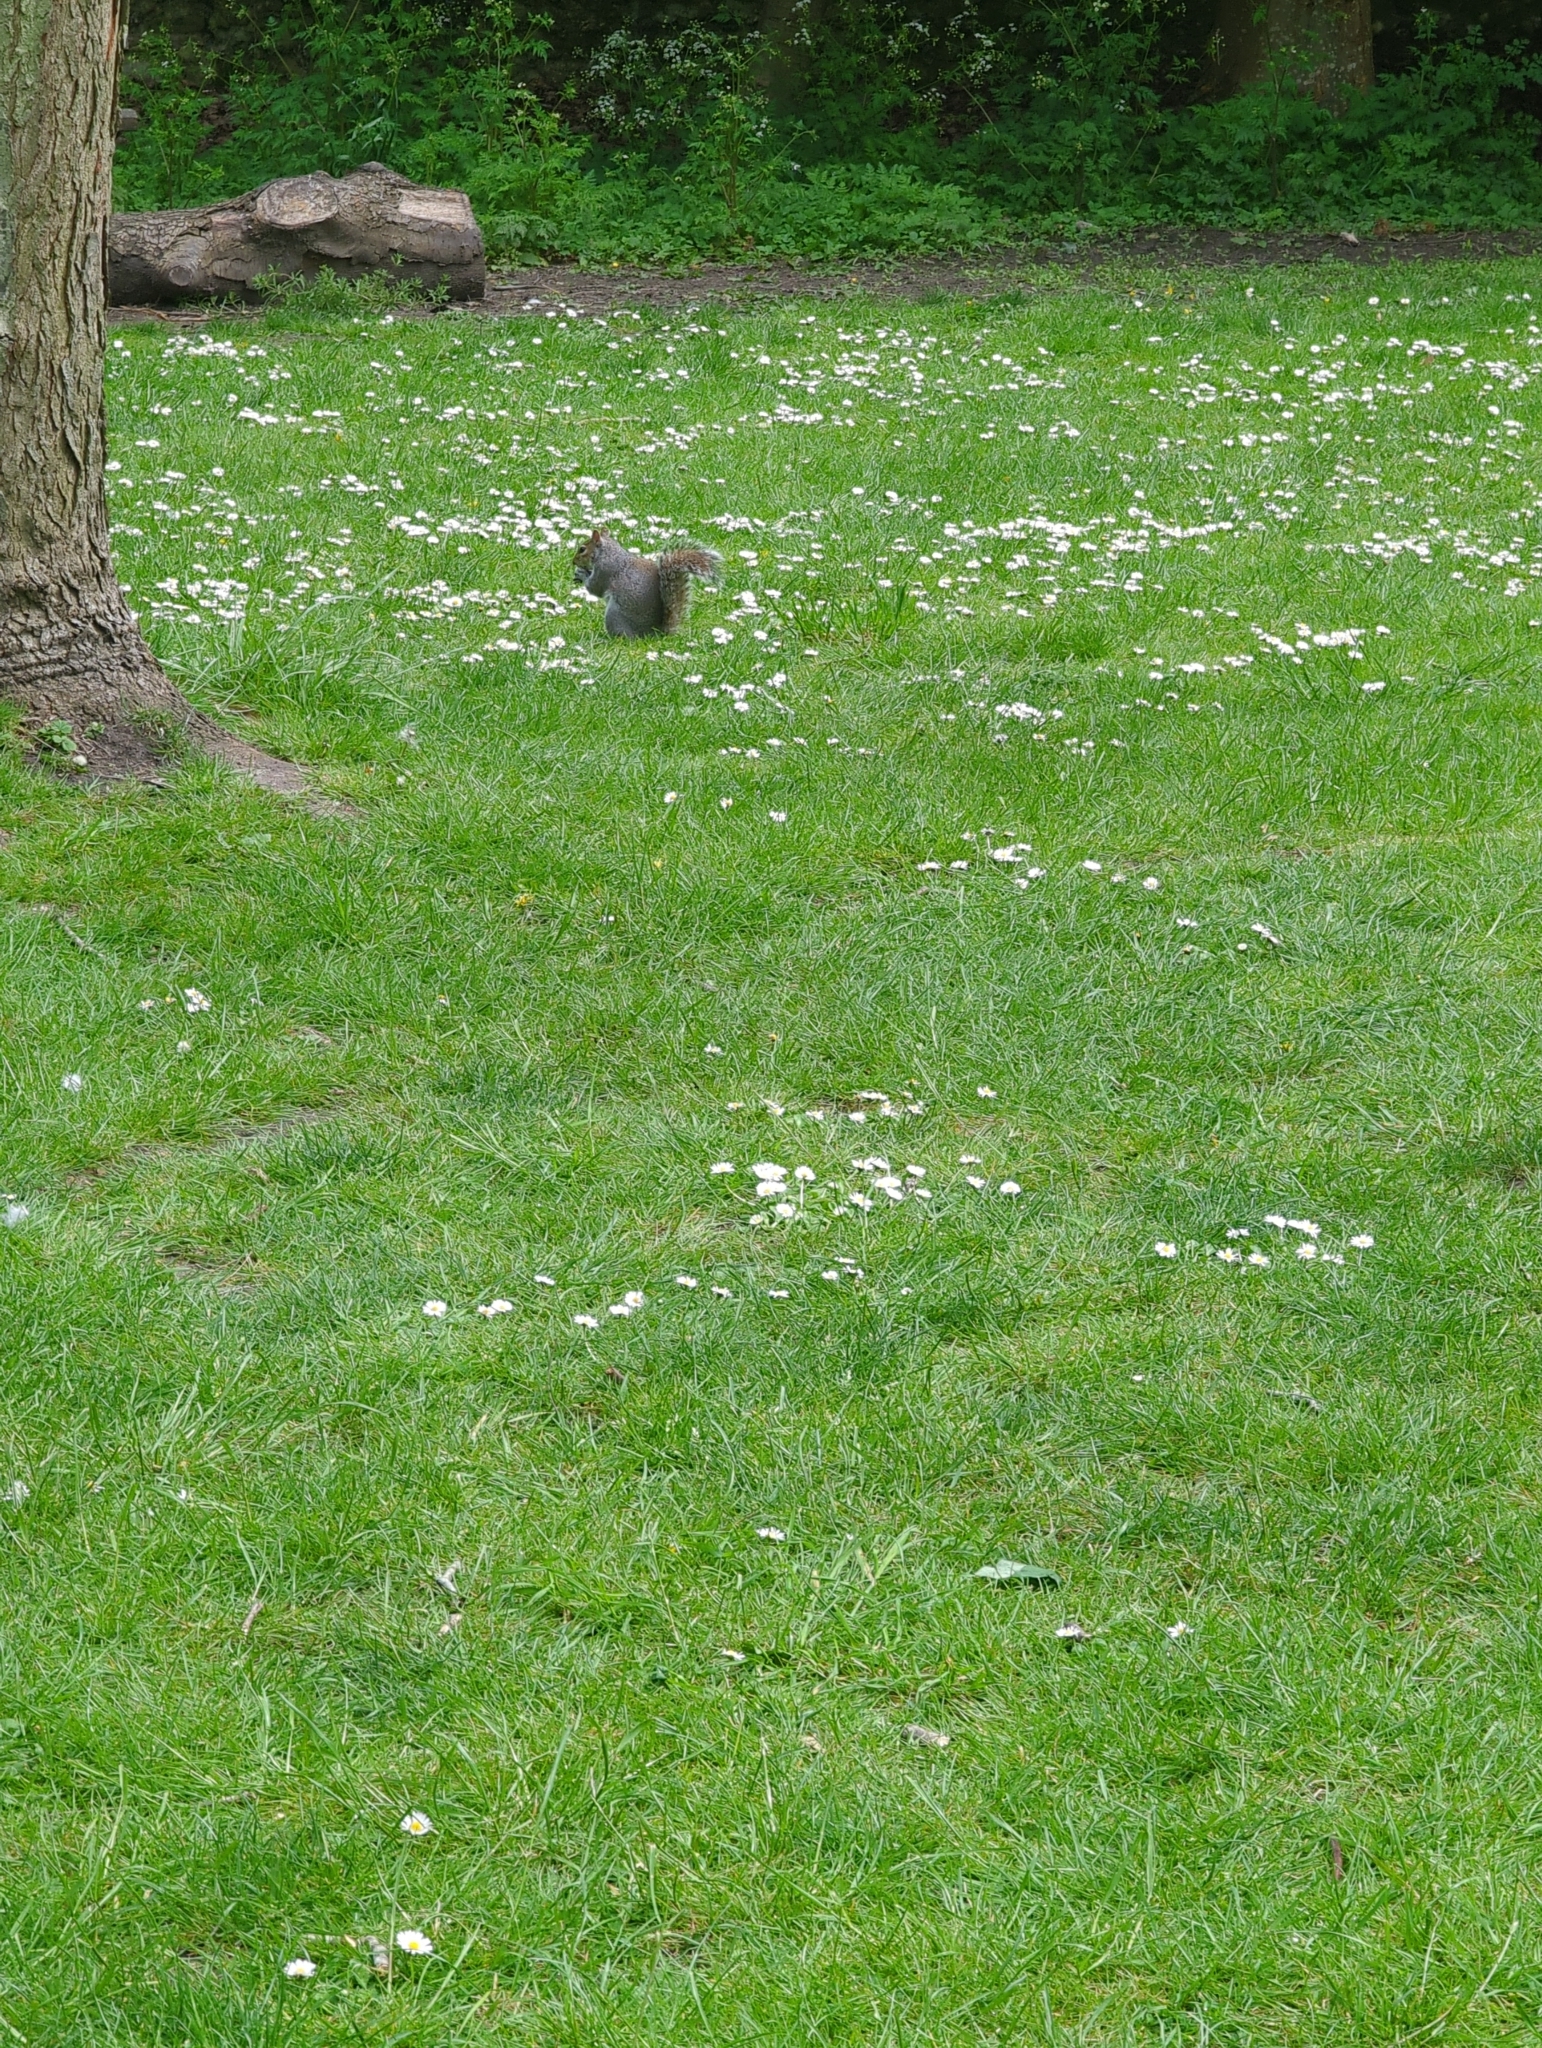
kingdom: Animalia
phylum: Chordata
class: Mammalia
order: Rodentia
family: Sciuridae
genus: Sciurus
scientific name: Sciurus carolinensis
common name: Eastern gray squirrel
